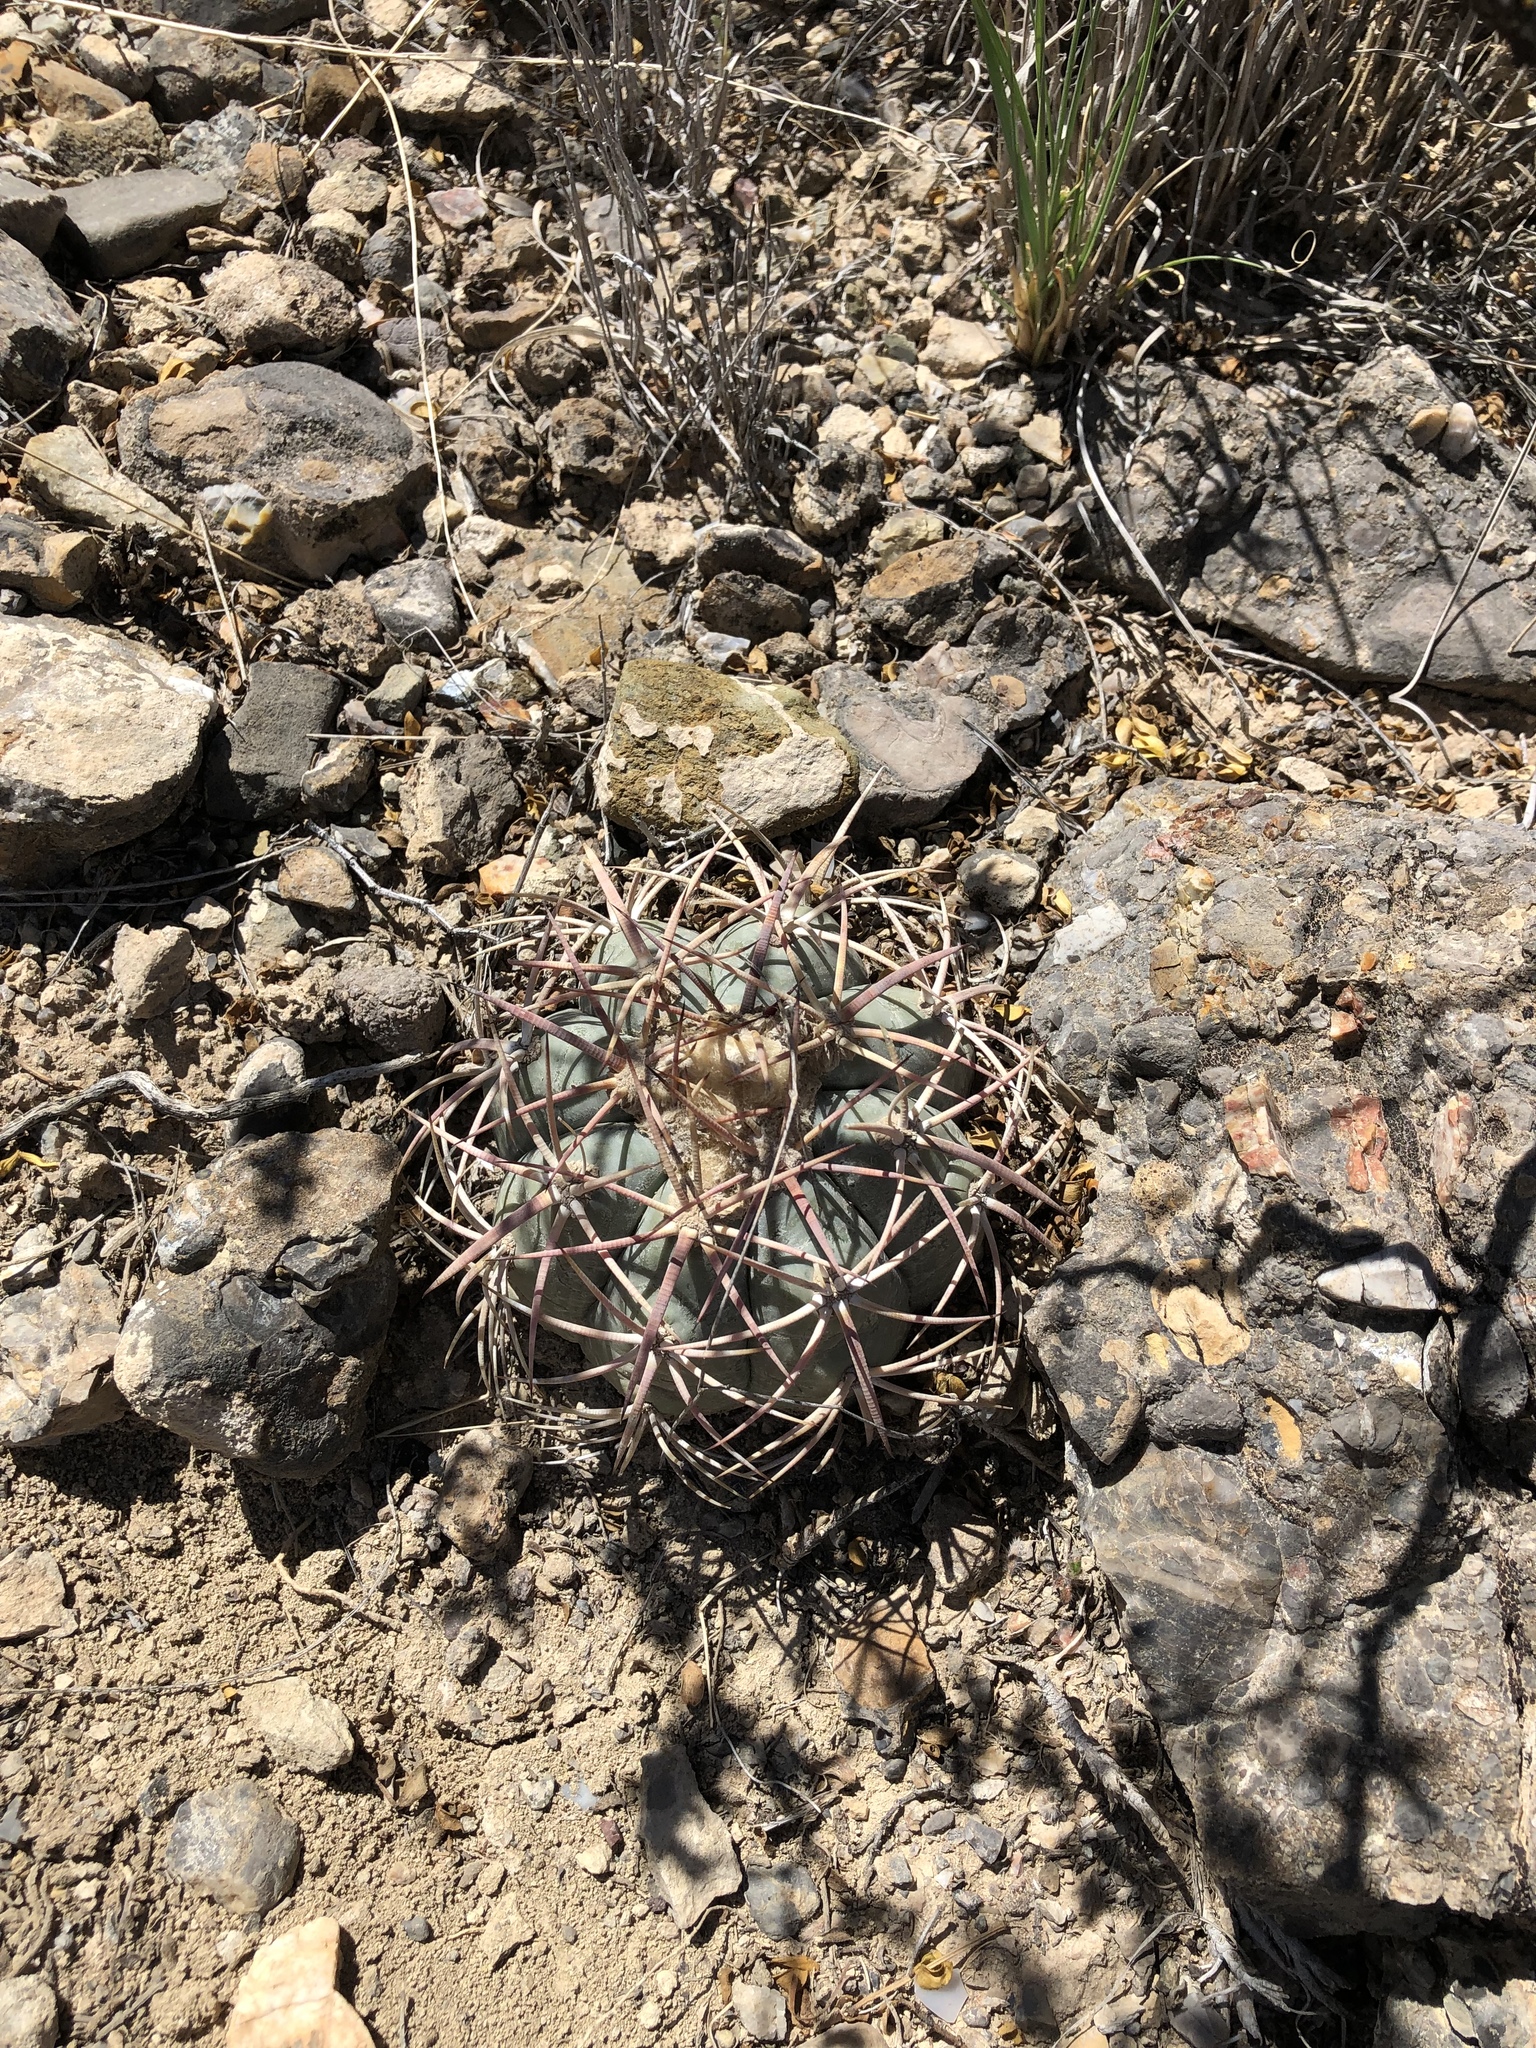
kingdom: Plantae
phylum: Tracheophyta
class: Magnoliopsida
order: Caryophyllales
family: Cactaceae
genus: Echinocactus
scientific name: Echinocactus horizonthalonius
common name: Devilshead
